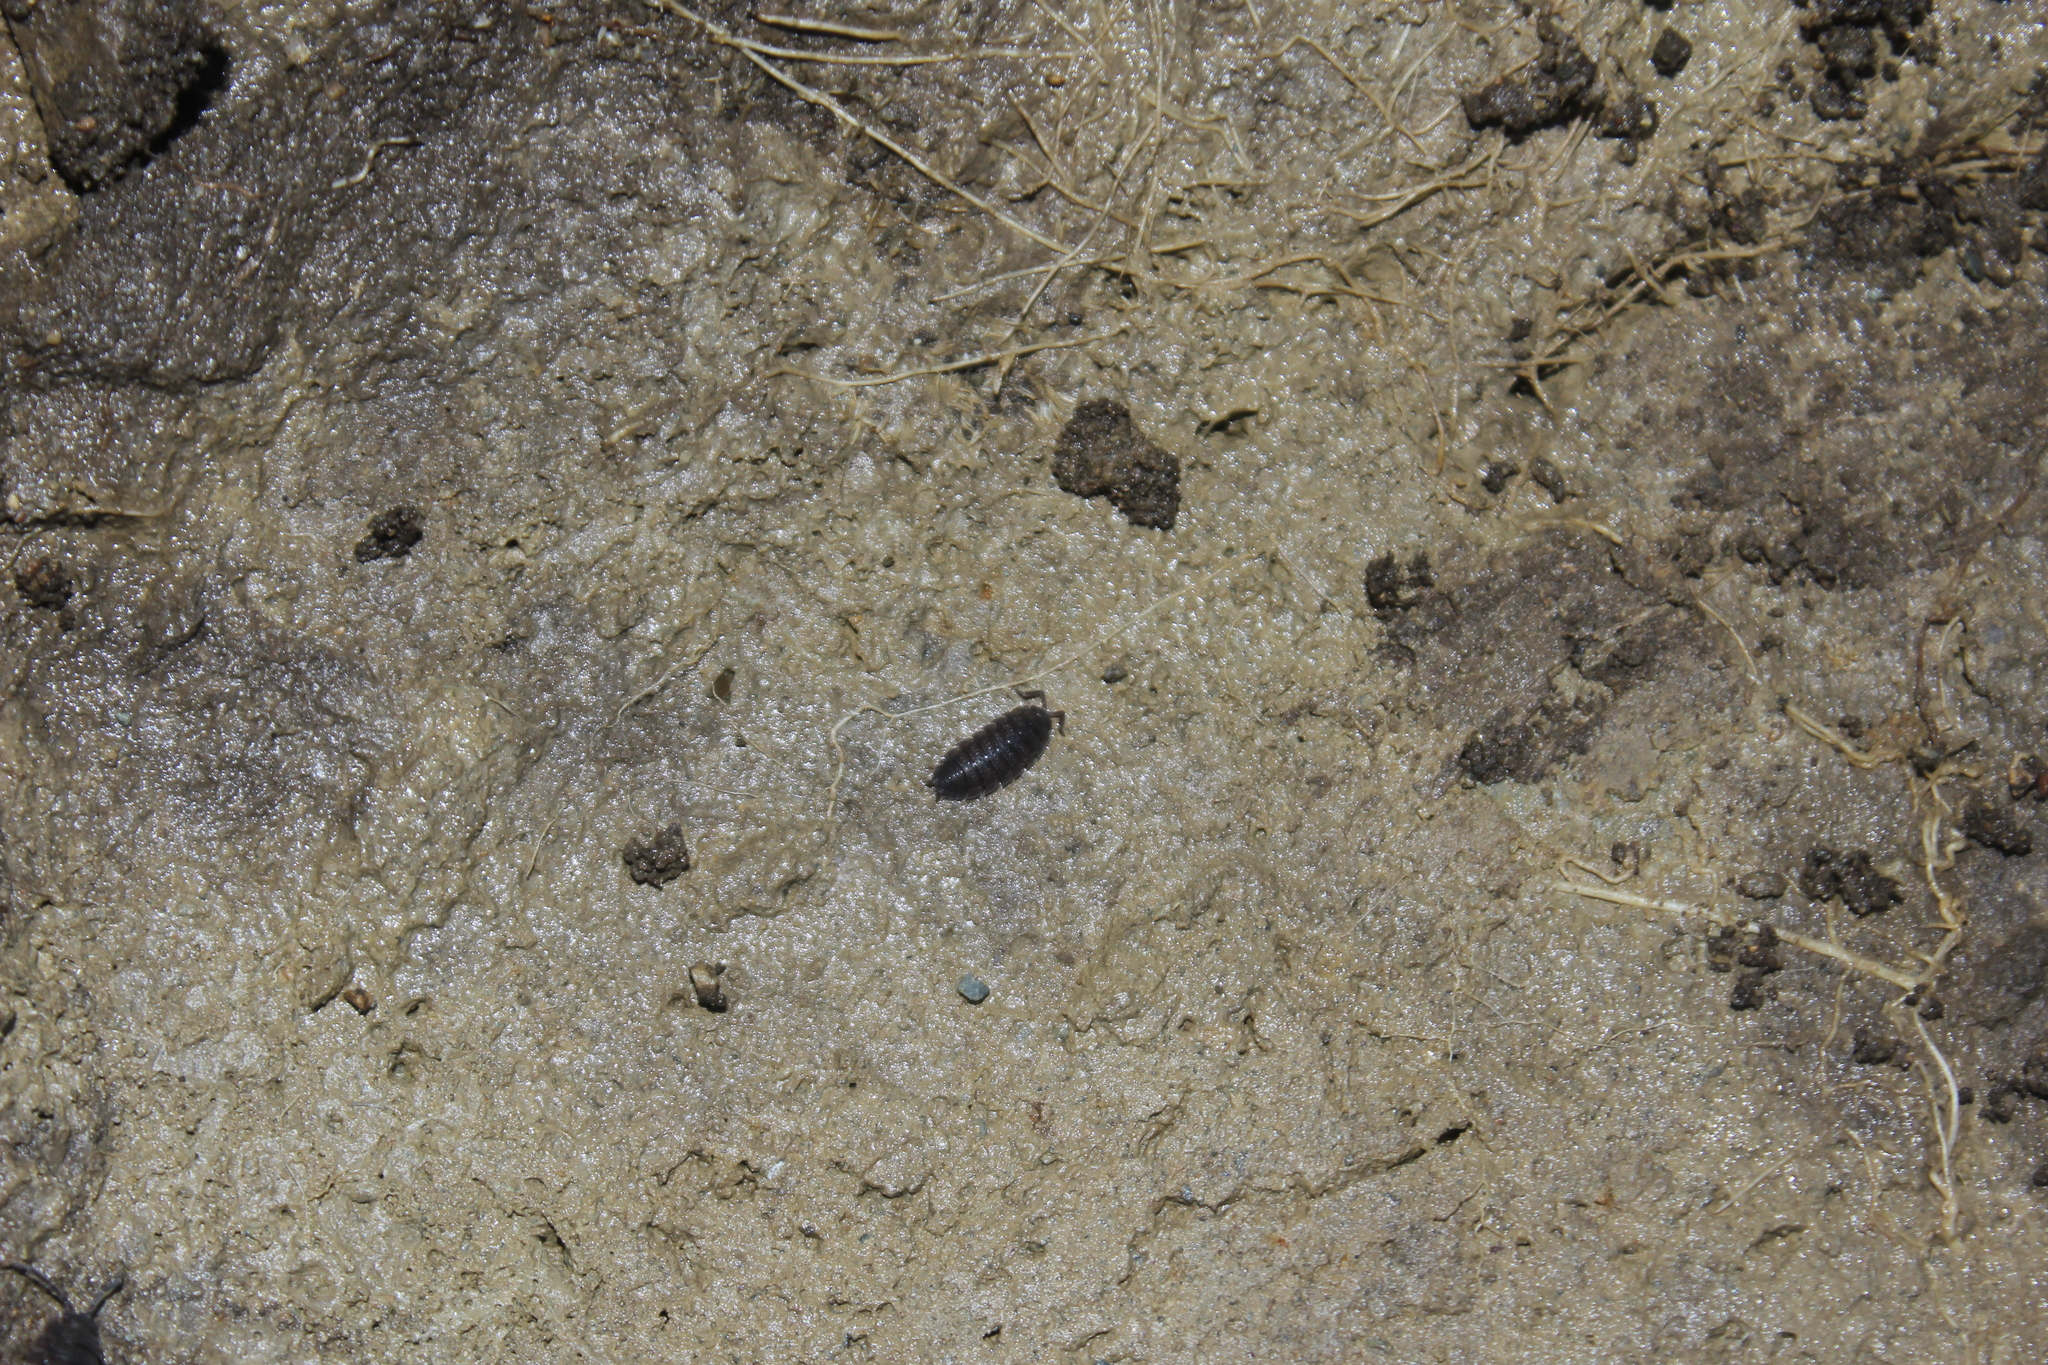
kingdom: Animalia
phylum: Arthropoda
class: Malacostraca
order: Isopoda
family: Porcellionidae
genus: Porcellio
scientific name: Porcellio scaber
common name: Common rough woodlouse
